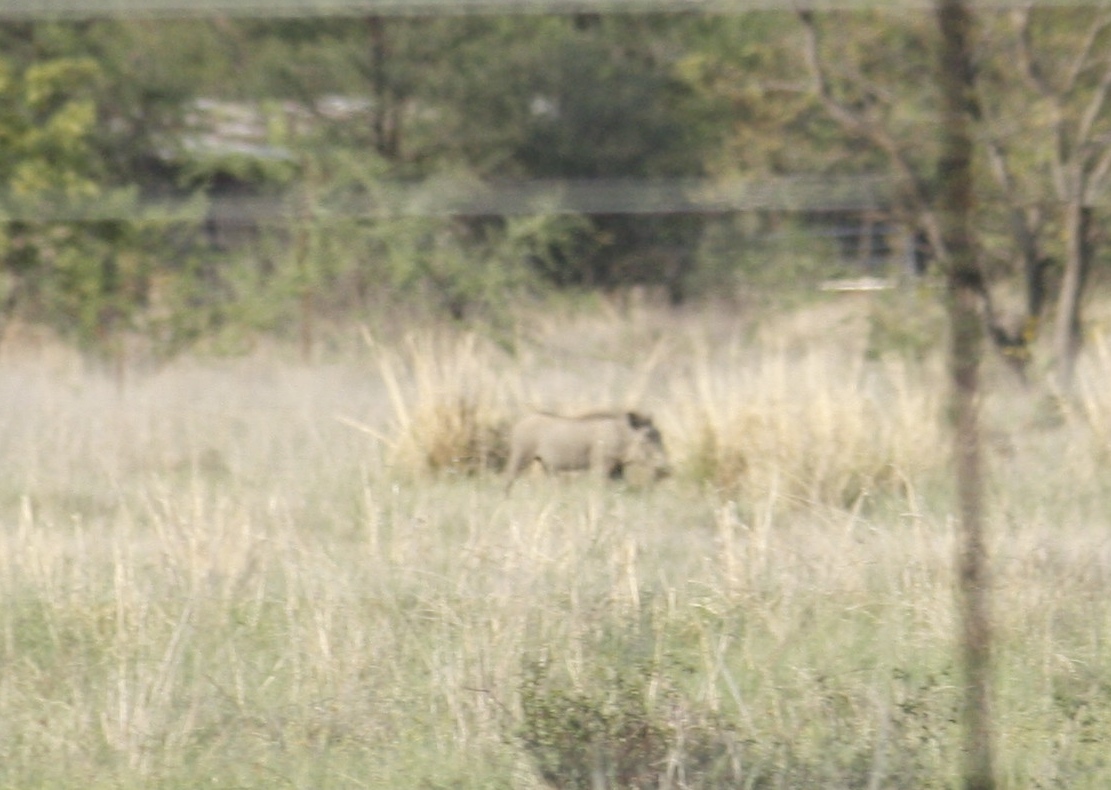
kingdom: Animalia
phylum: Chordata
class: Mammalia
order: Artiodactyla
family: Suidae
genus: Phacochoerus
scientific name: Phacochoerus africanus
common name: Common warthog
